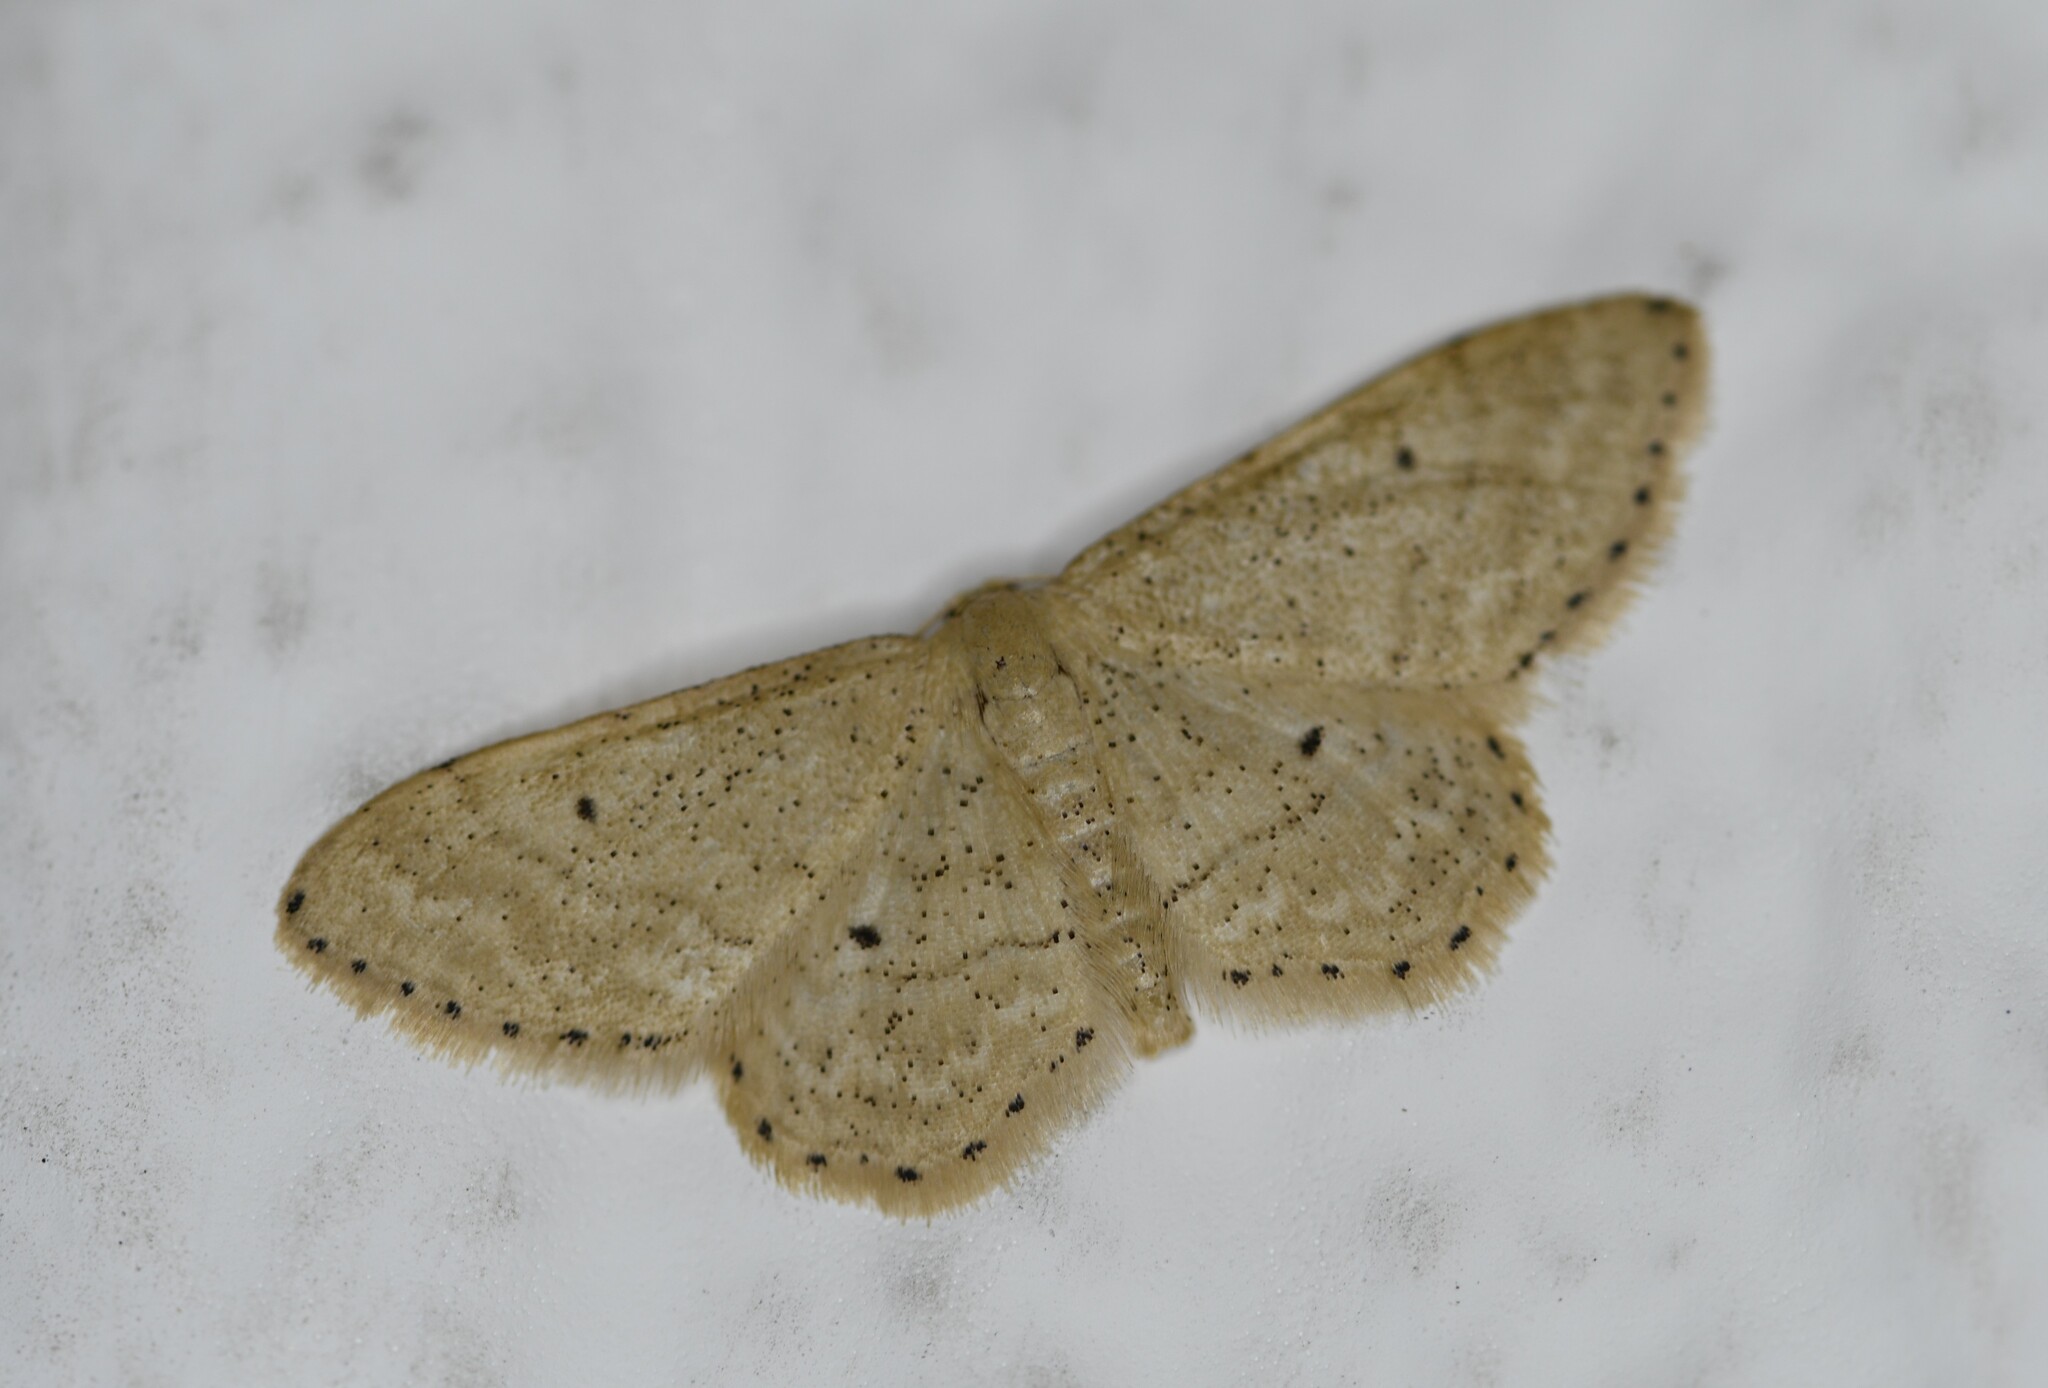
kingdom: Animalia
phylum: Arthropoda
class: Insecta
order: Lepidoptera
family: Geometridae
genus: Idaea
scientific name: Idaea obsoletaria
